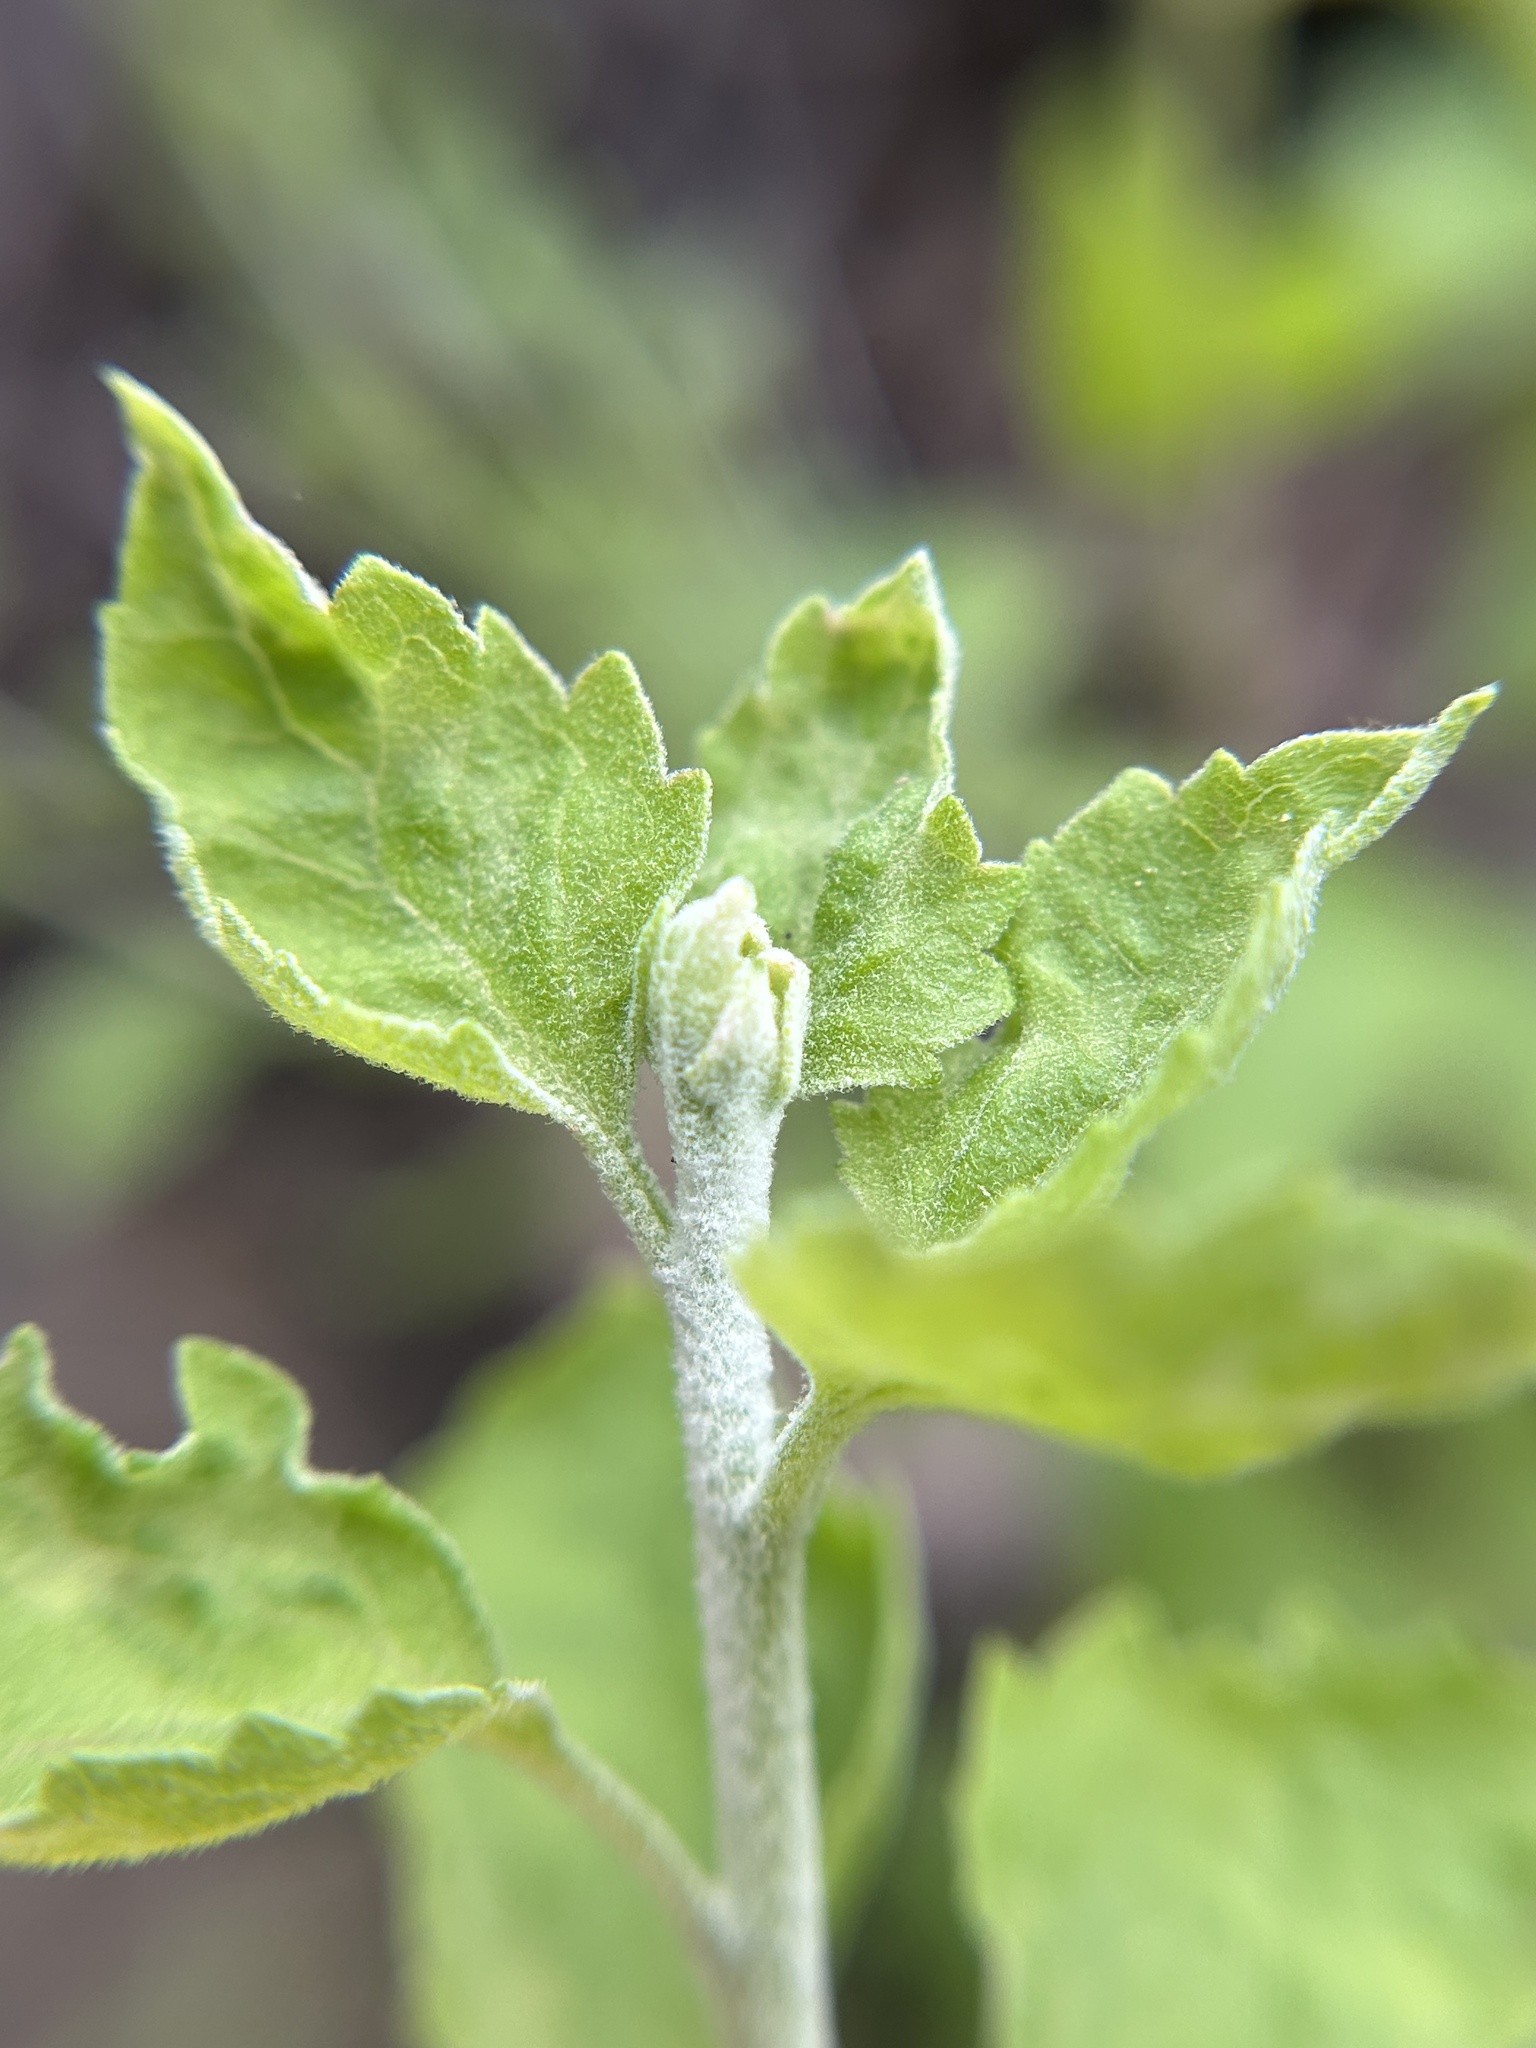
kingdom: Plantae
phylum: Tracheophyta
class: Magnoliopsida
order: Asterales
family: Asteraceae
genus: Brickellia
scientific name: Brickellia californica
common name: California brickellbush
